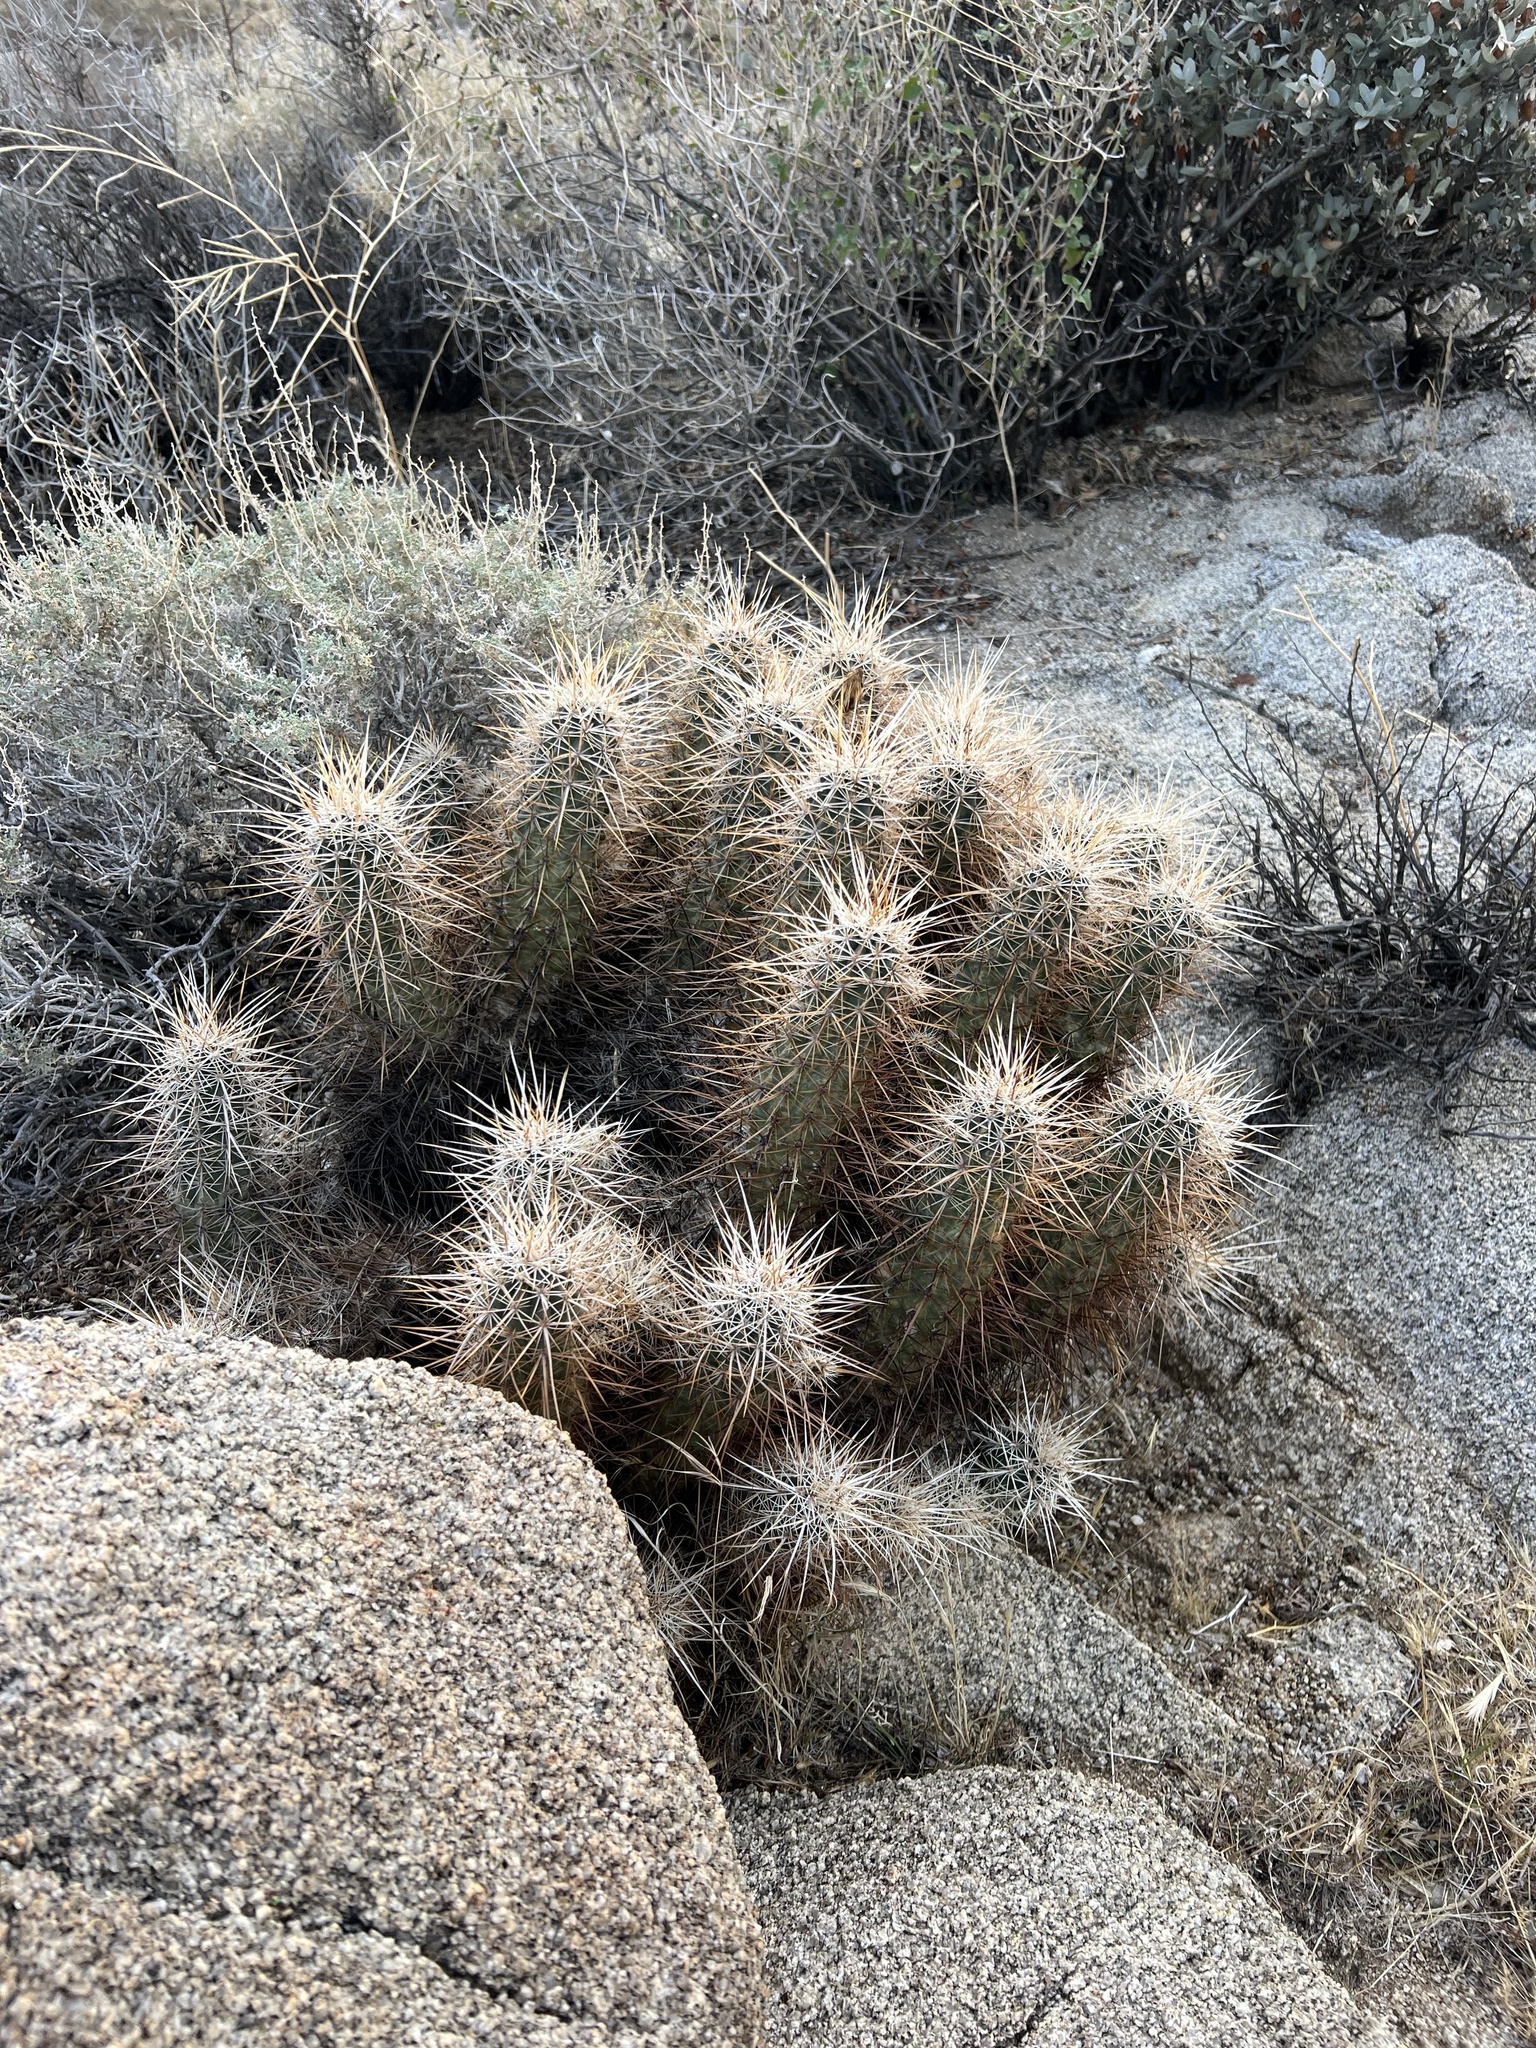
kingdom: Plantae
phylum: Tracheophyta
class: Magnoliopsida
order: Caryophyllales
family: Cactaceae
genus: Echinocereus
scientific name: Echinocereus engelmannii
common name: Engelmann's hedgehog cactus
